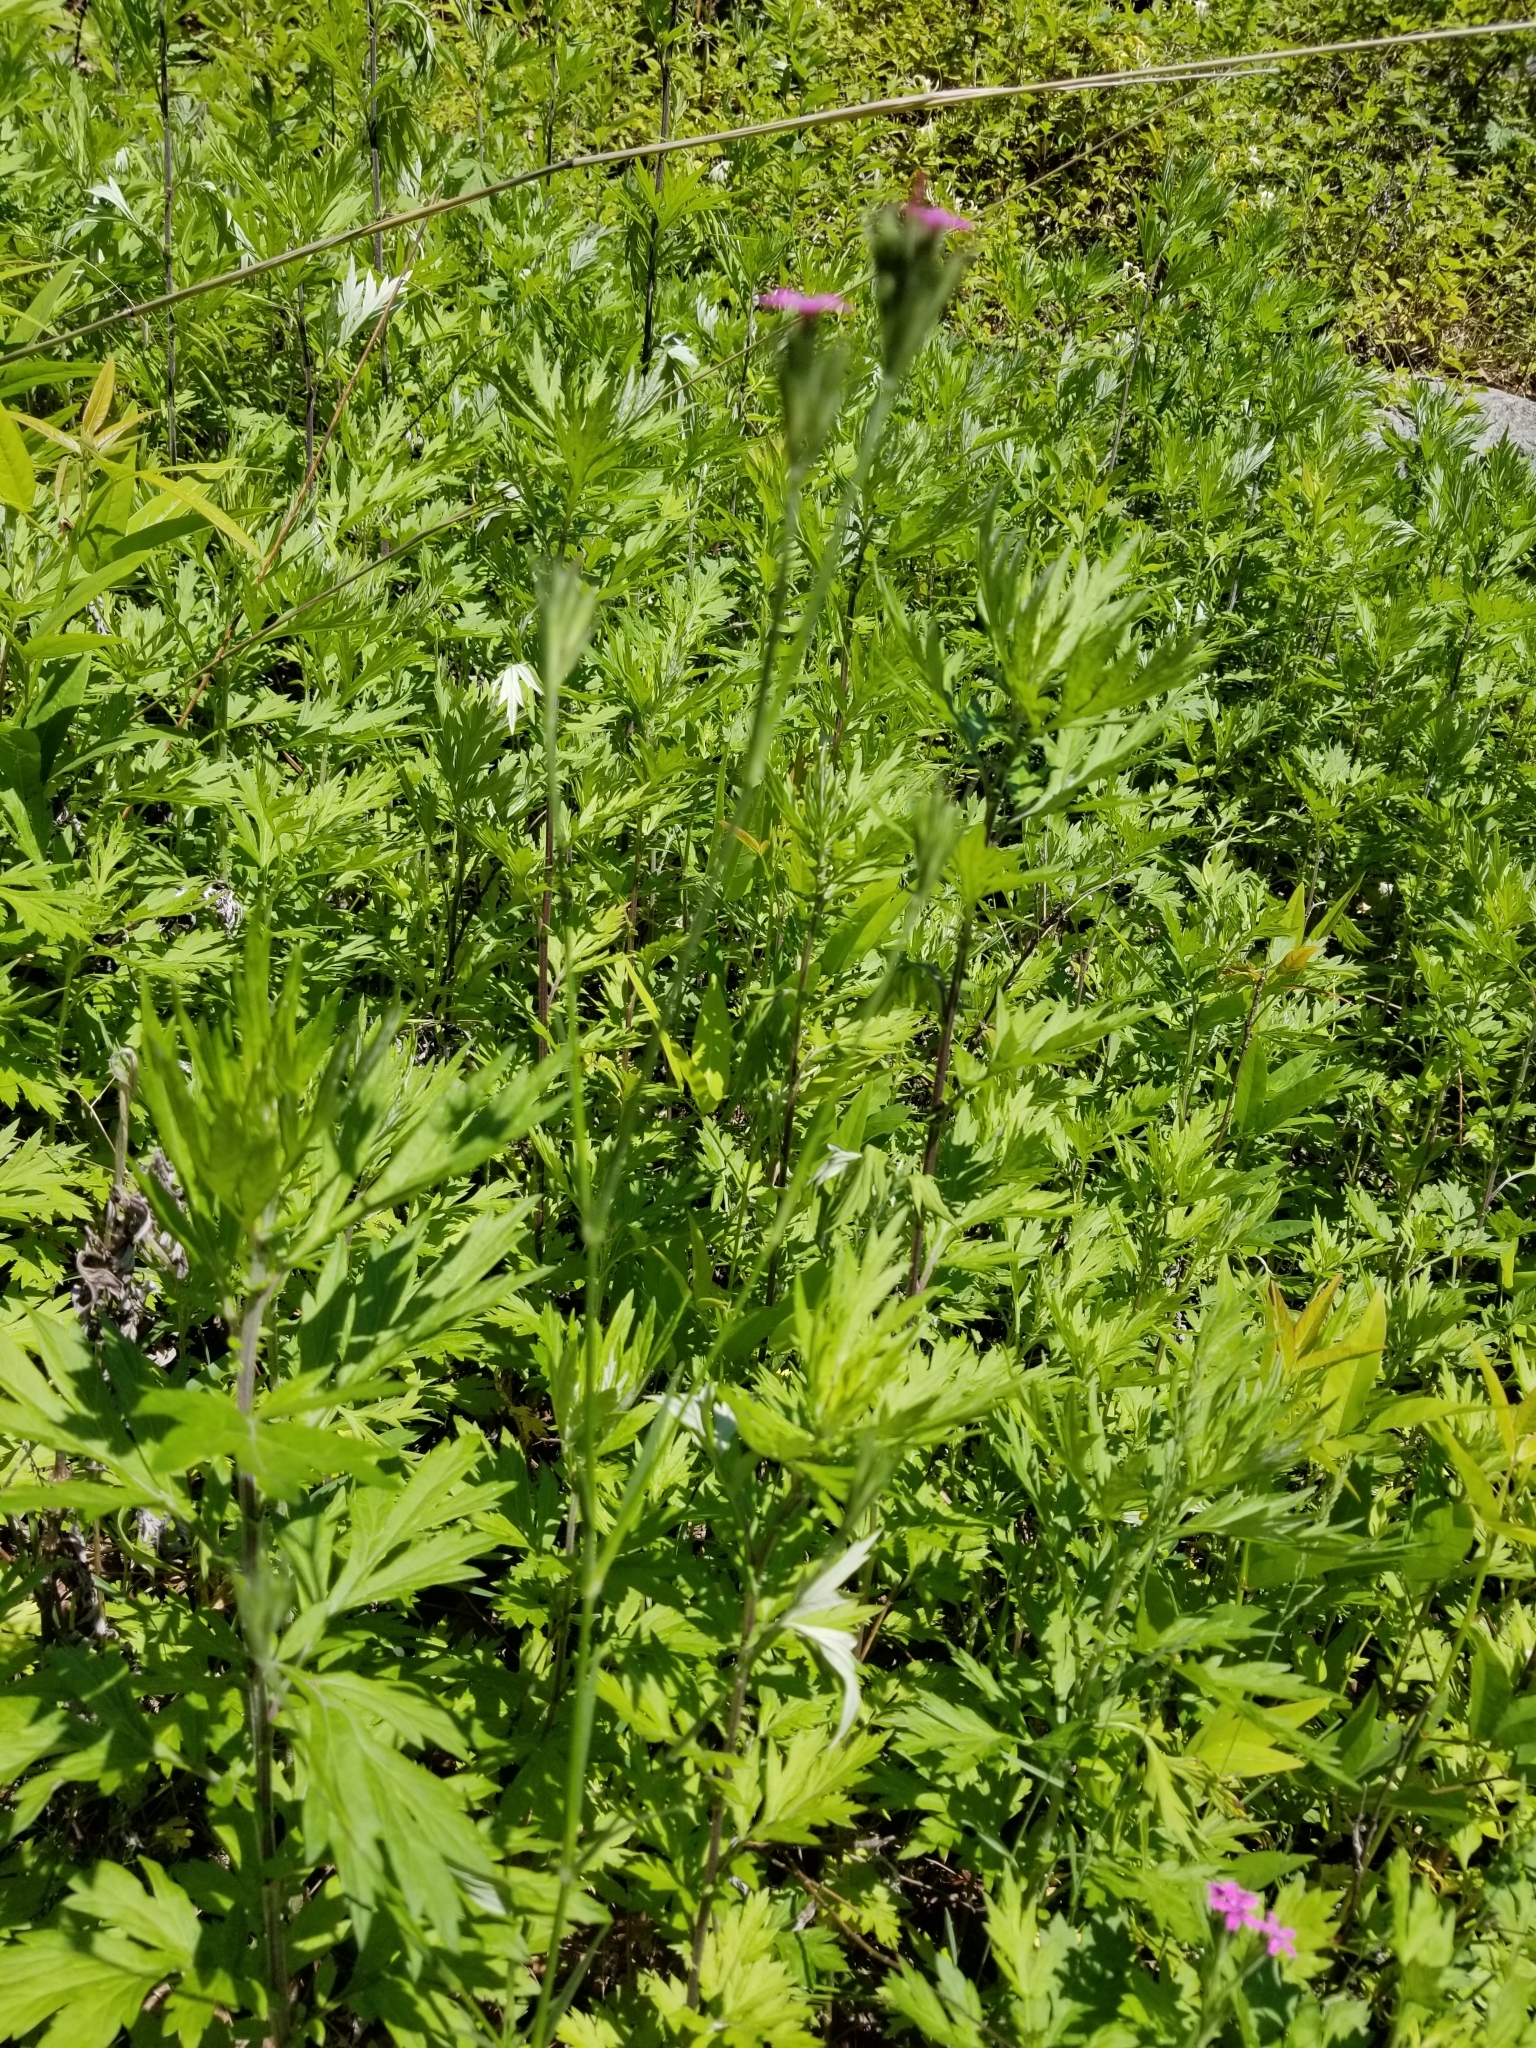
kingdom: Plantae
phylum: Tracheophyta
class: Magnoliopsida
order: Asterales
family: Asteraceae
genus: Artemisia
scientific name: Artemisia vulgaris
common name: Mugwort
